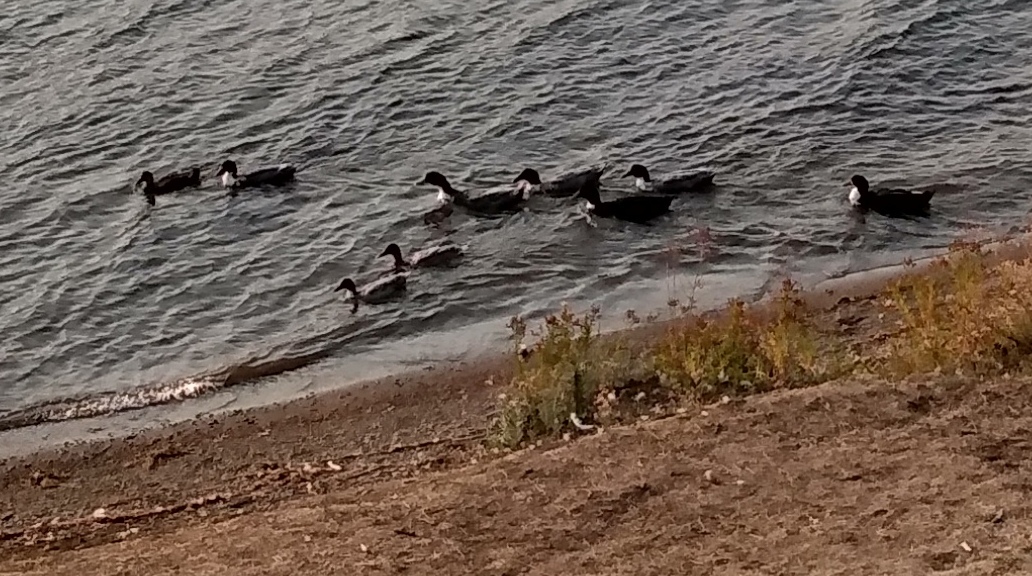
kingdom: Animalia
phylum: Chordata
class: Aves
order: Anseriformes
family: Anatidae
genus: Anas
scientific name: Anas platyrhynchos
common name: Mallard
